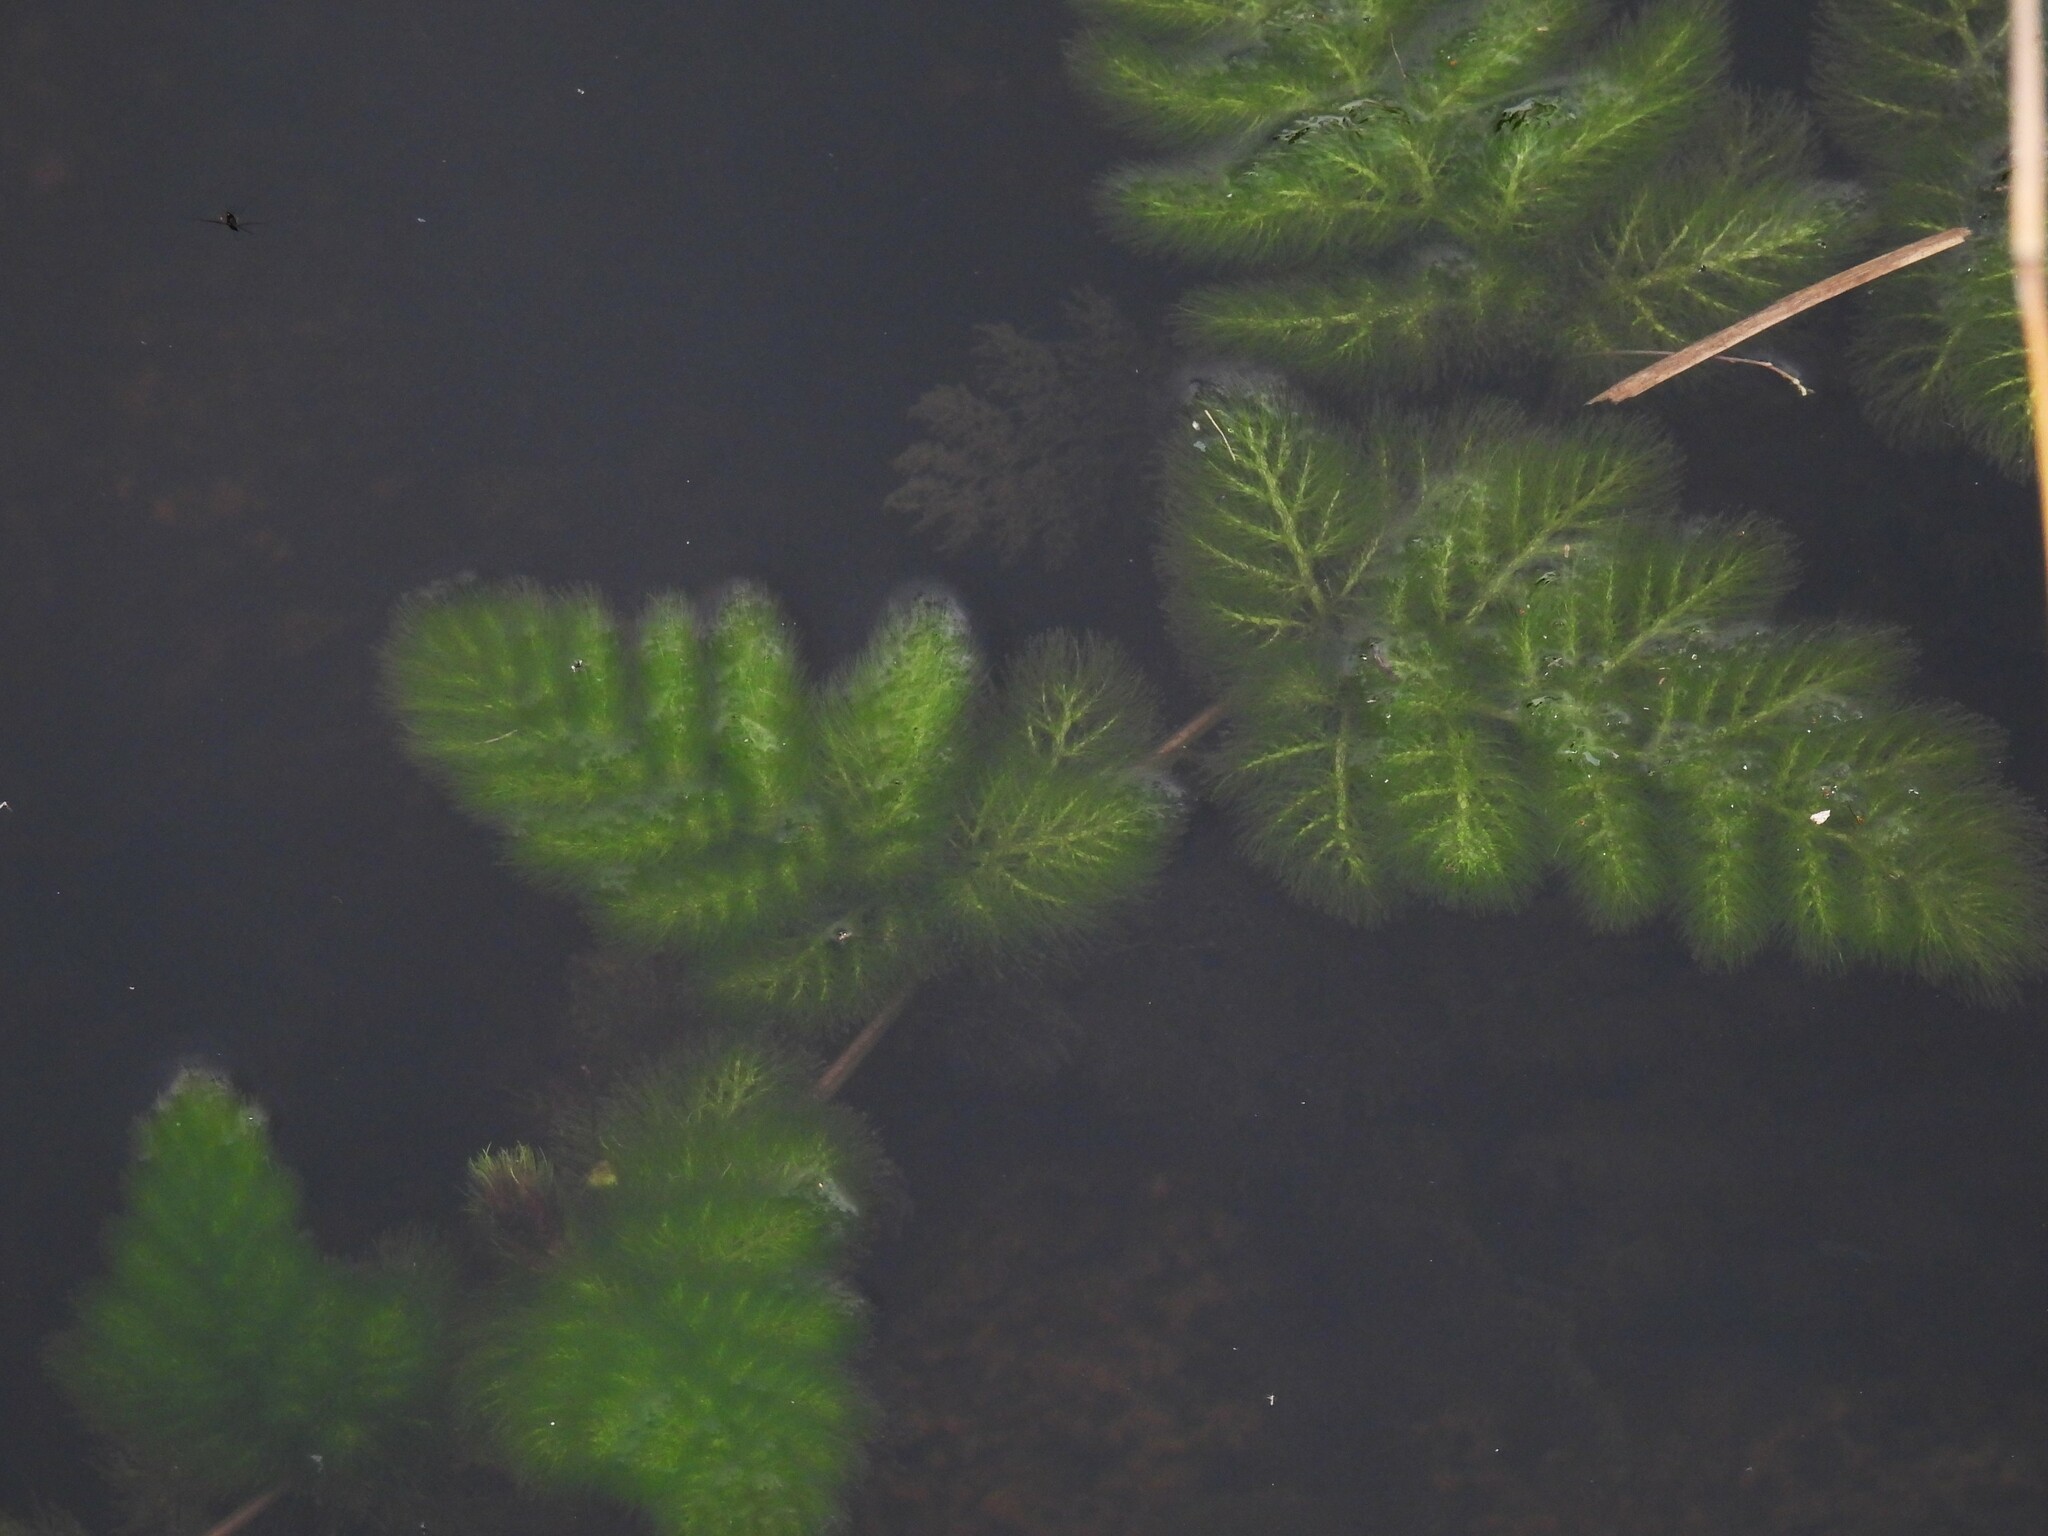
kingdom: Plantae
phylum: Tracheophyta
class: Magnoliopsida
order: Lamiales
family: Lentibulariaceae
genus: Utricularia
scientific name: Utricularia foliosa
